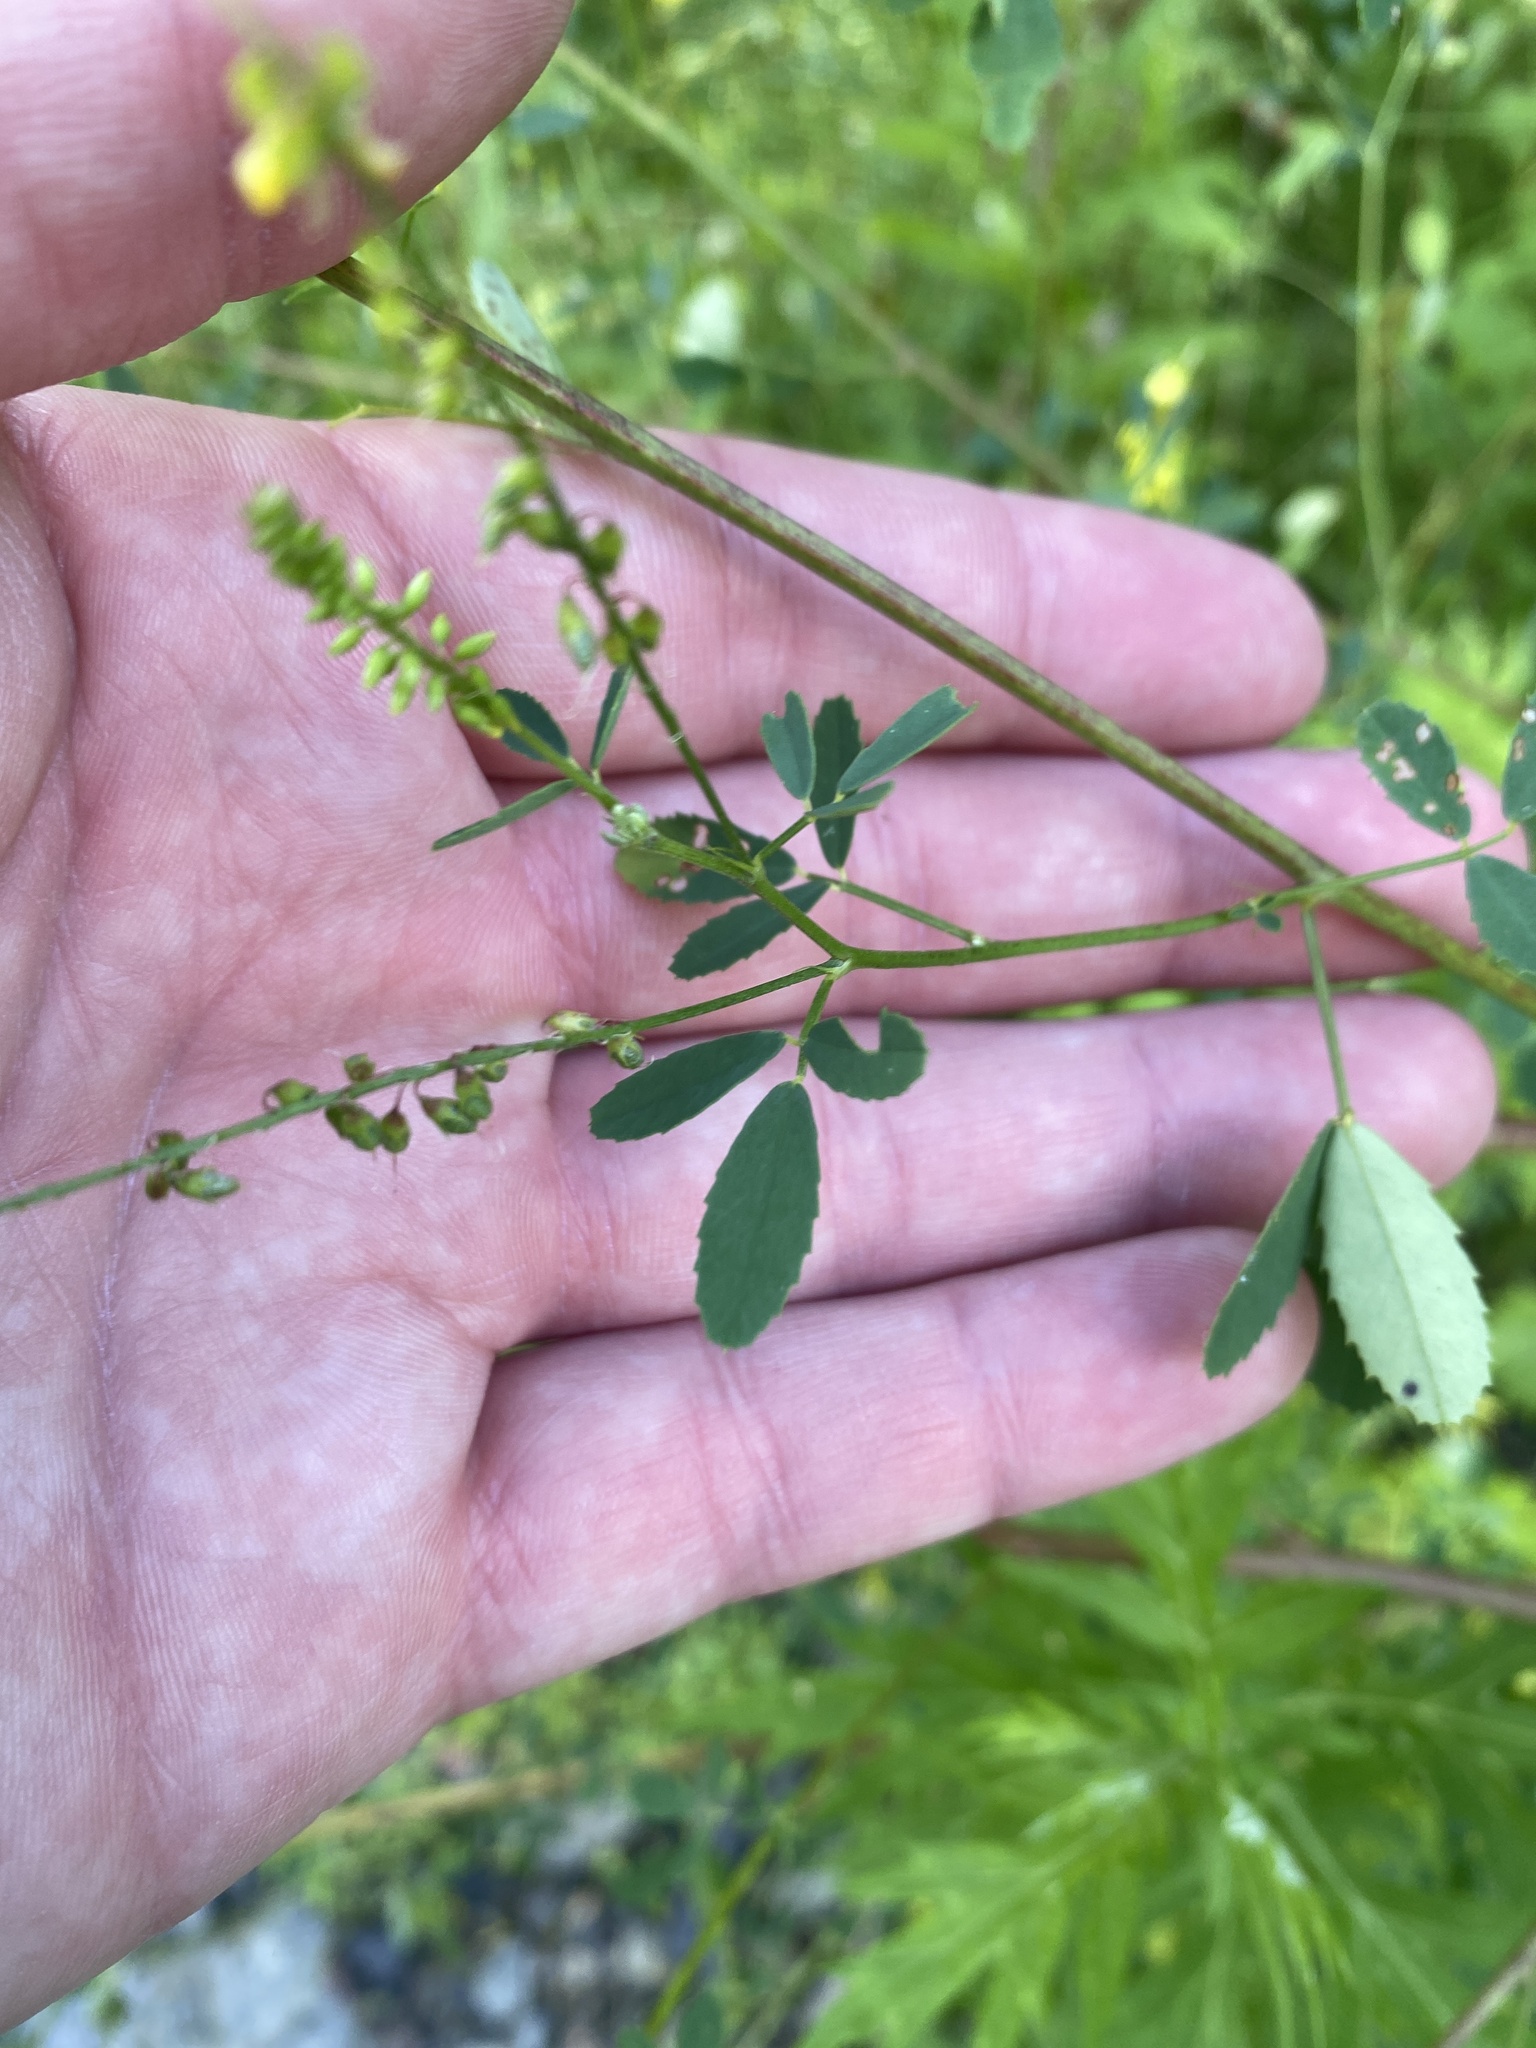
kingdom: Plantae
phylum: Tracheophyta
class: Magnoliopsida
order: Fabales
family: Fabaceae
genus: Melilotus
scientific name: Melilotus officinalis
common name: Sweetclover
